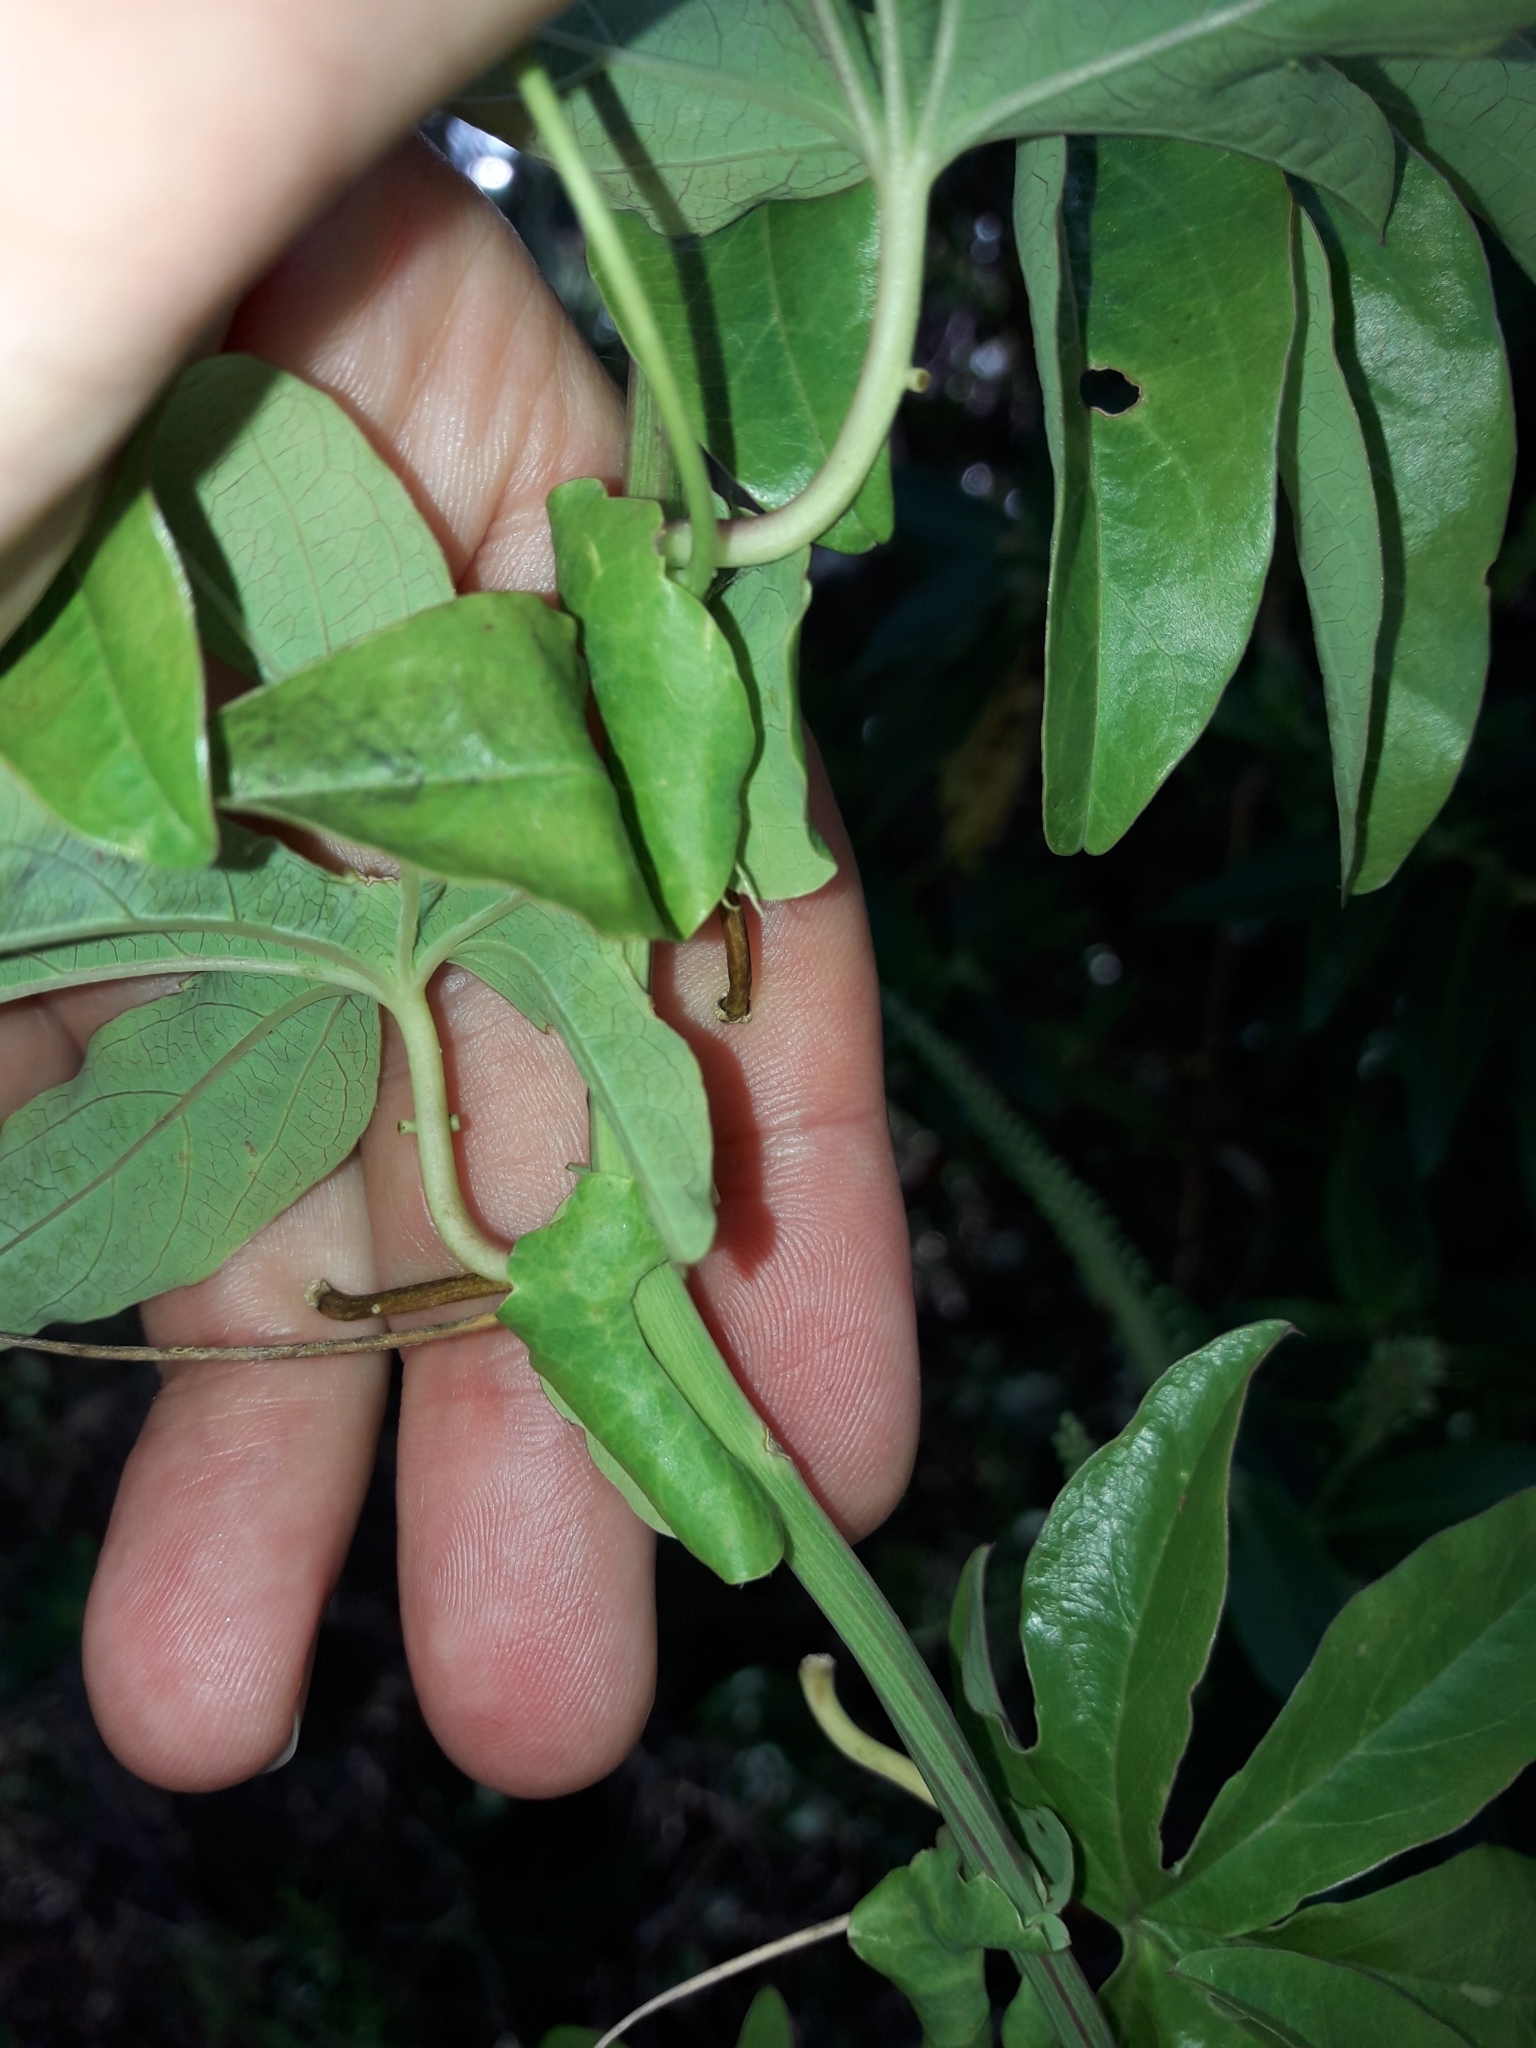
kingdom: Plantae
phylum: Tracheophyta
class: Magnoliopsida
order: Malpighiales
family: Passifloraceae
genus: Passiflora
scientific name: Passiflora caerulea
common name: Blue passionflower
